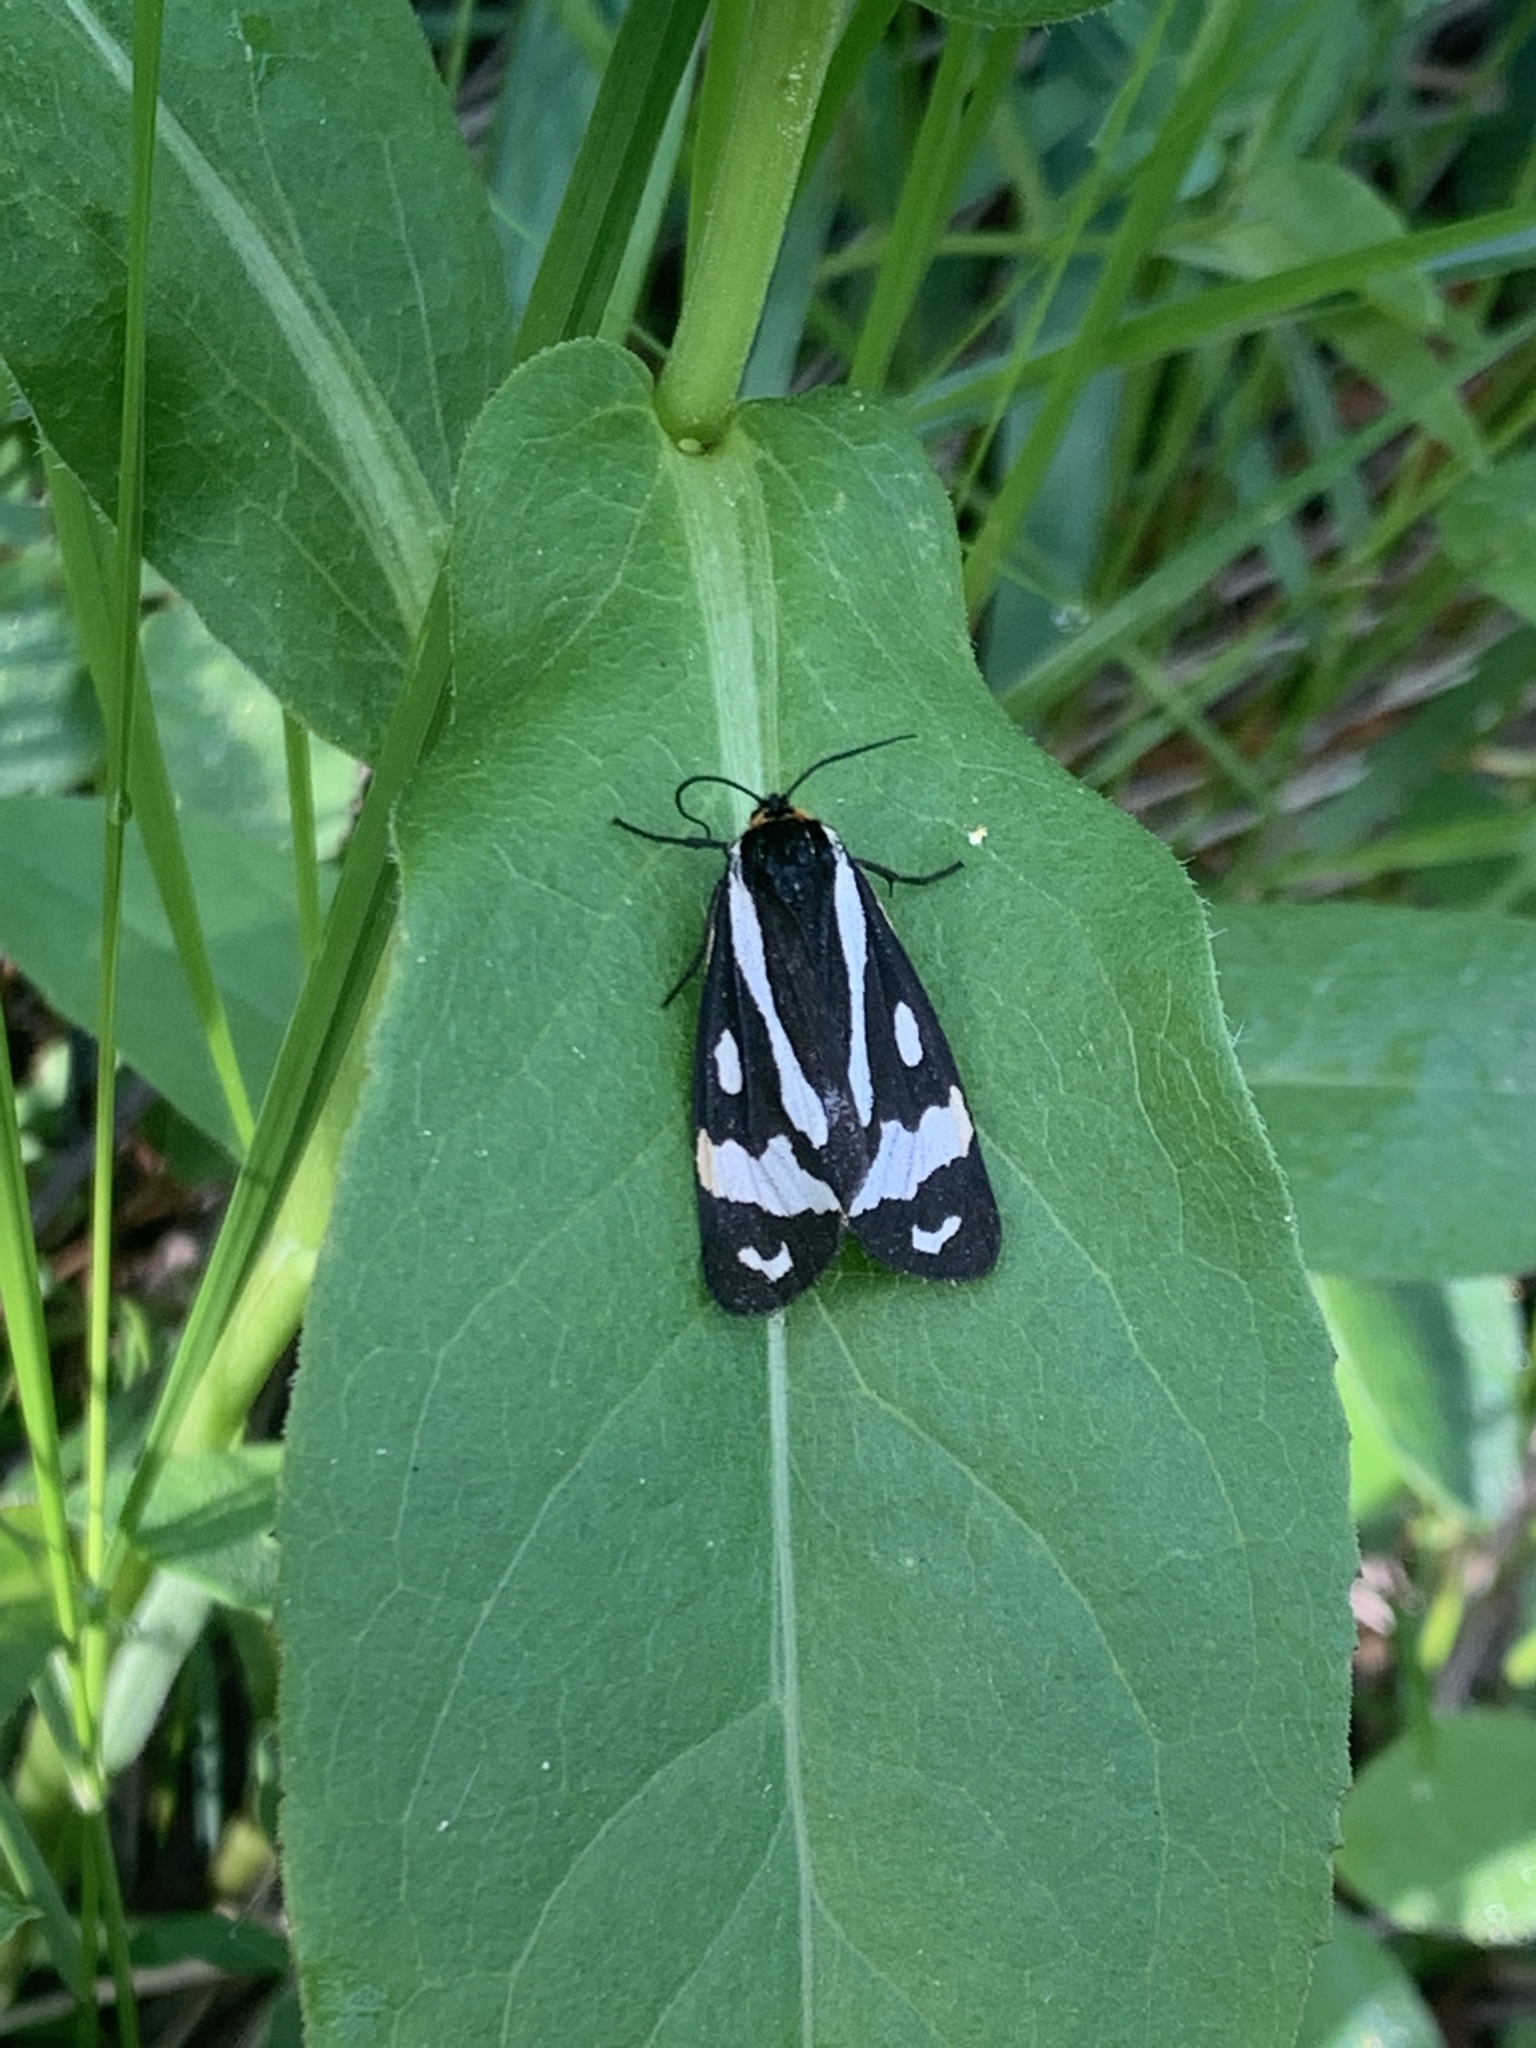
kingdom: Animalia
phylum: Arthropoda
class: Insecta
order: Lepidoptera
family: Erebidae
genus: Parasemia
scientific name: Parasemia plantaginis
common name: Wood tiger
